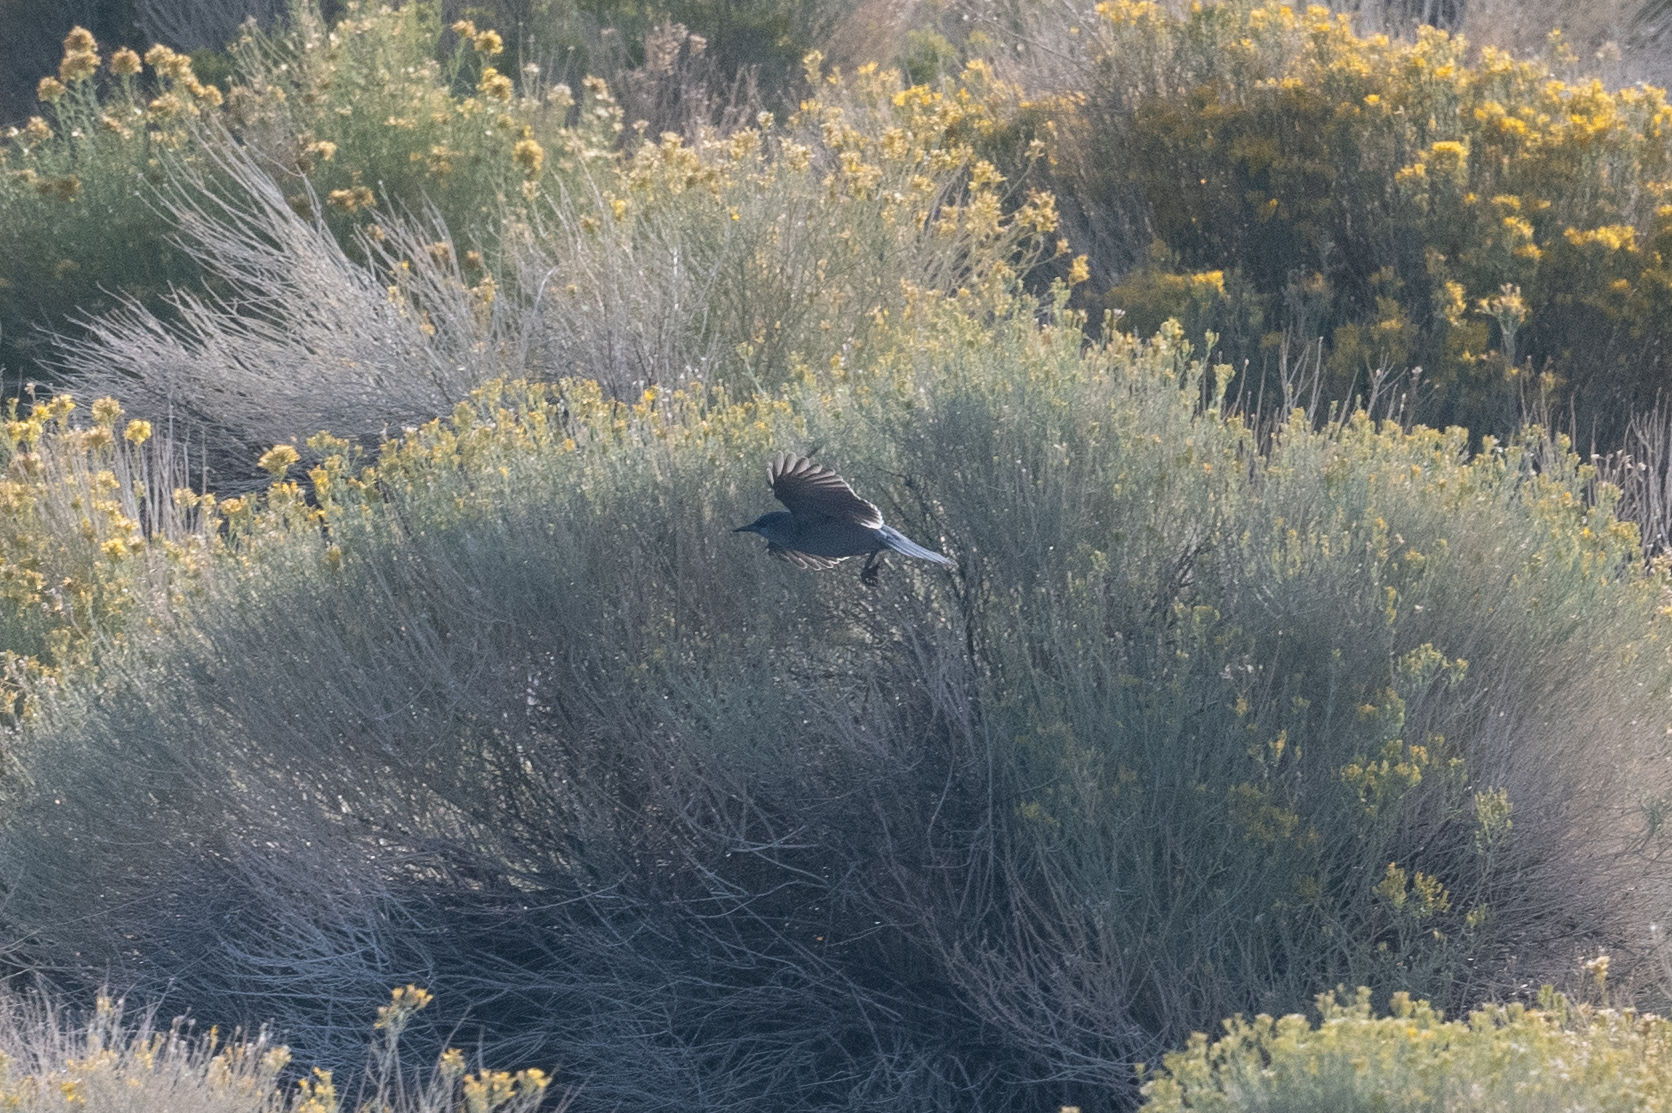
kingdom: Animalia
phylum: Chordata
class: Aves
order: Passeriformes
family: Corvidae
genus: Gymnorhinus
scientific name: Gymnorhinus cyanocephalus
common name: Pinyon jay
